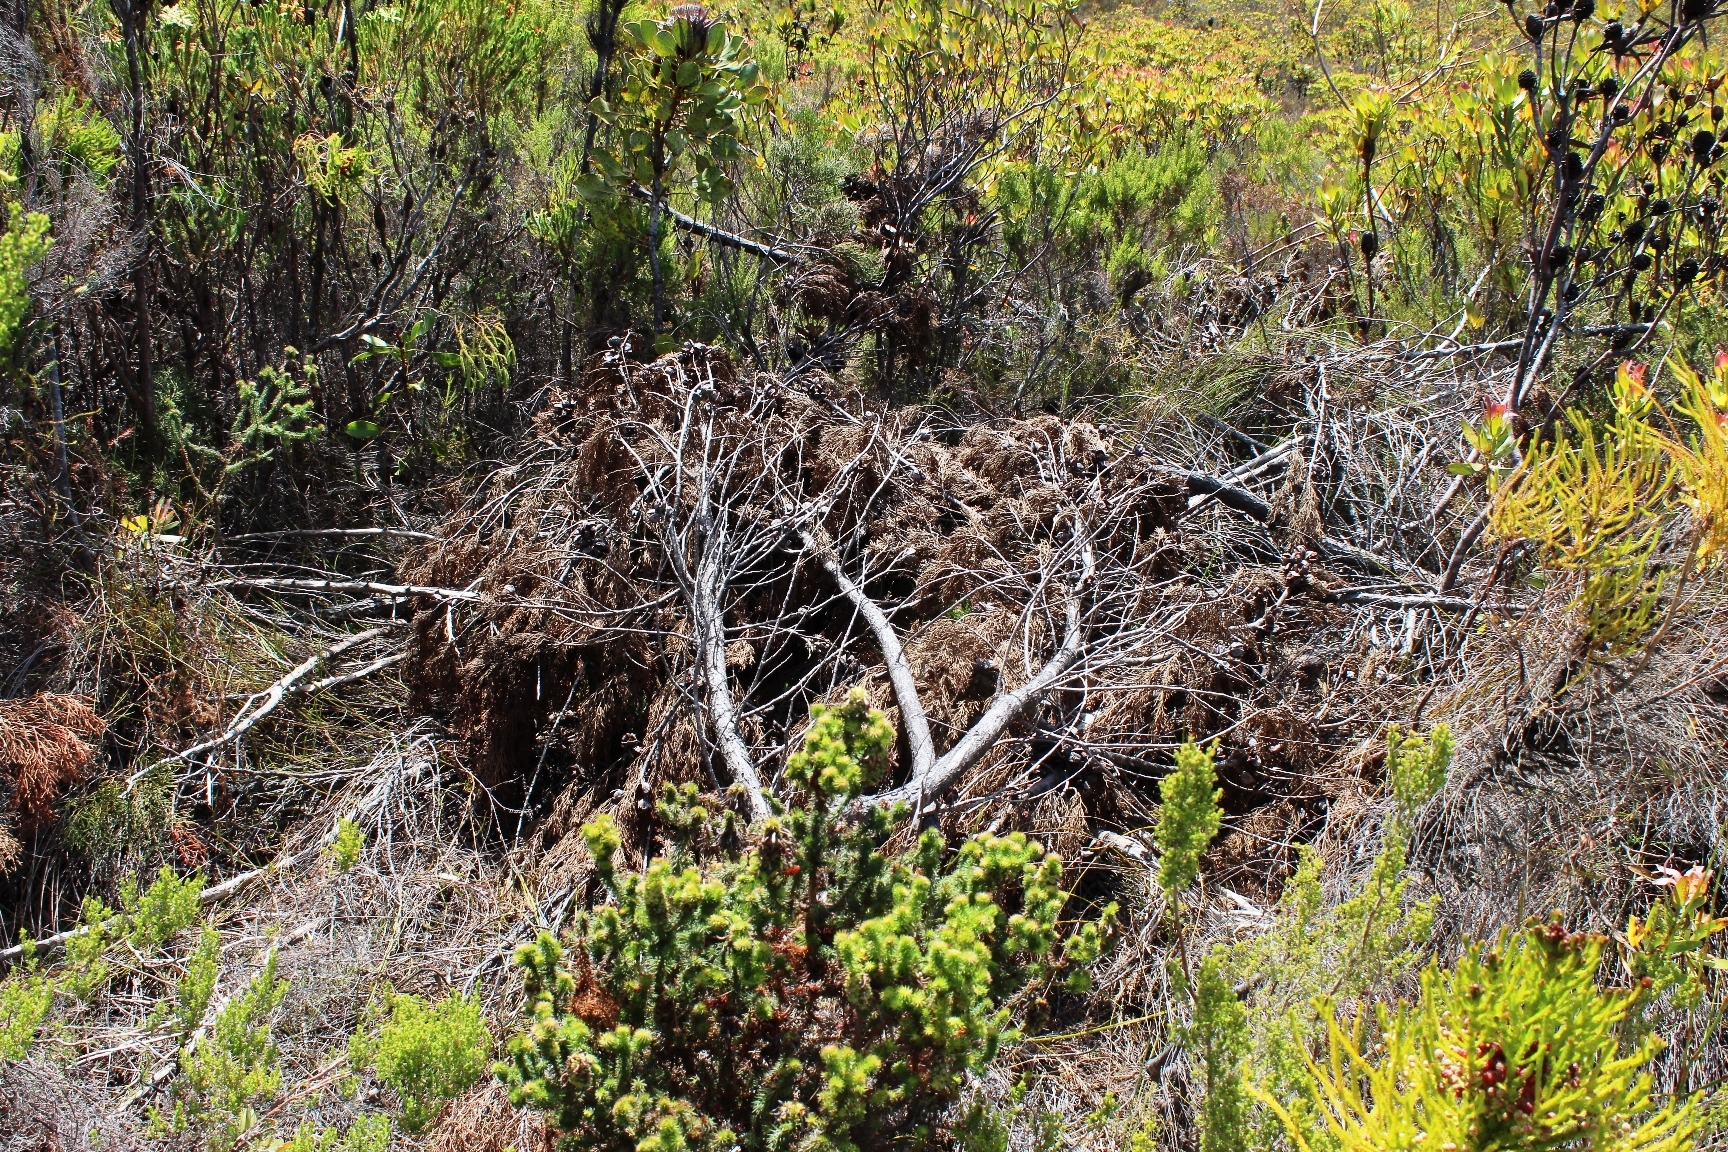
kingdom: Plantae
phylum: Tracheophyta
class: Pinopsida
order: Pinales
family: Cupressaceae
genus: Widdringtonia
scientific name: Widdringtonia nodiflora
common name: Cape cypress
